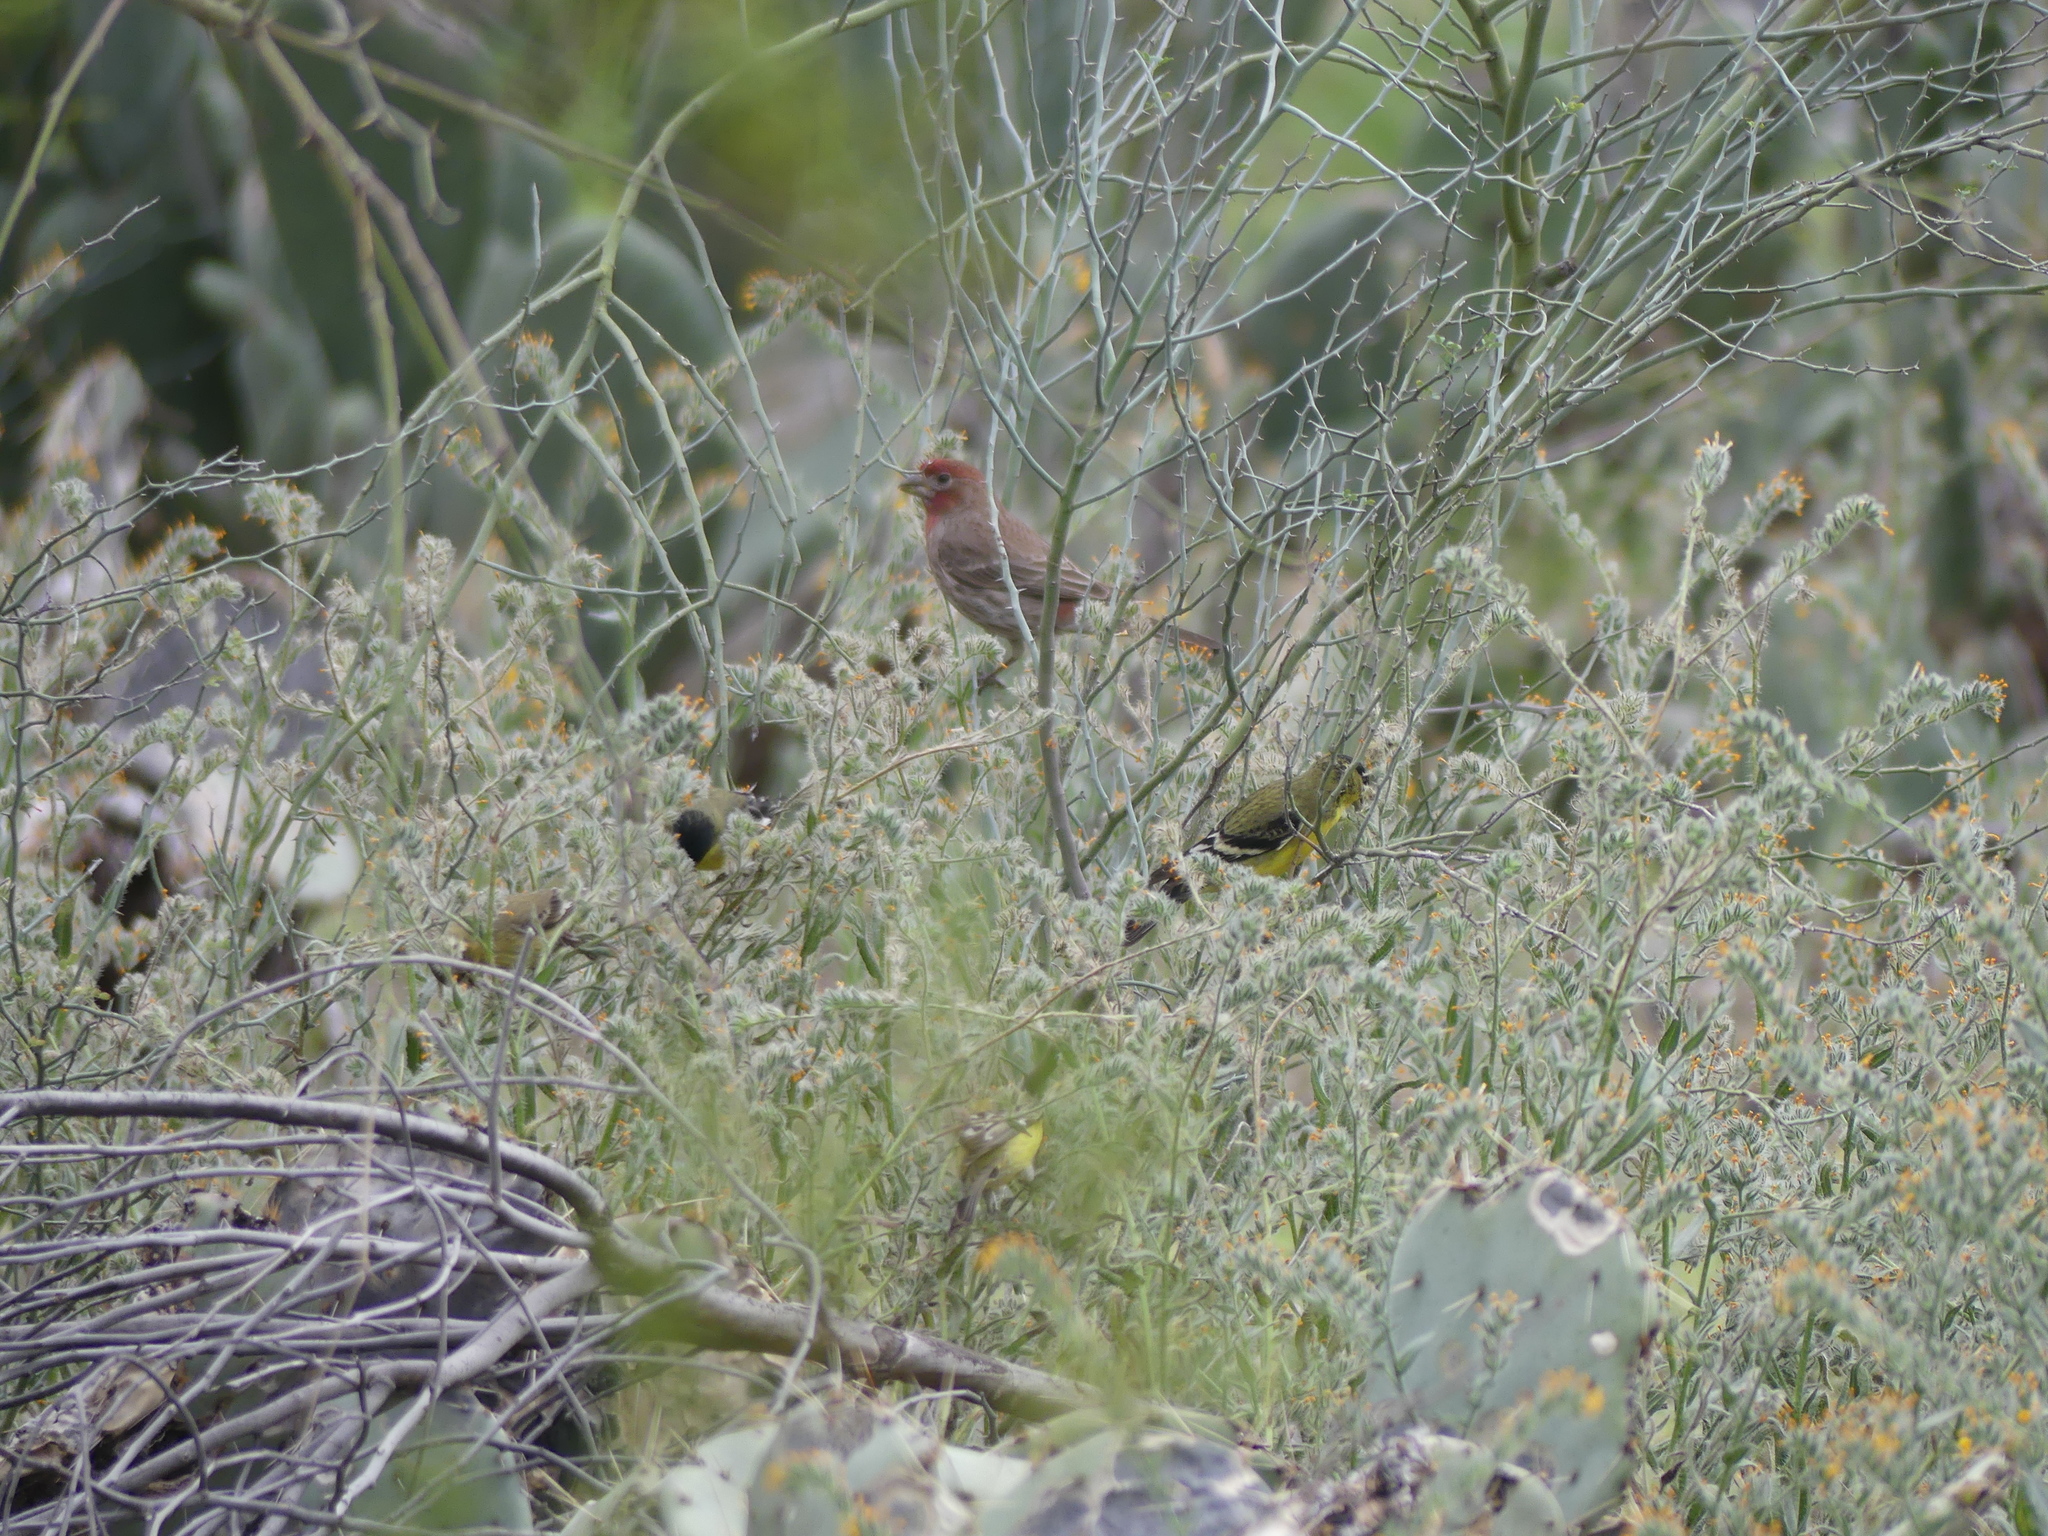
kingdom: Animalia
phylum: Chordata
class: Aves
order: Passeriformes
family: Fringillidae
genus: Haemorhous
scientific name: Haemorhous mexicanus
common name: House finch
